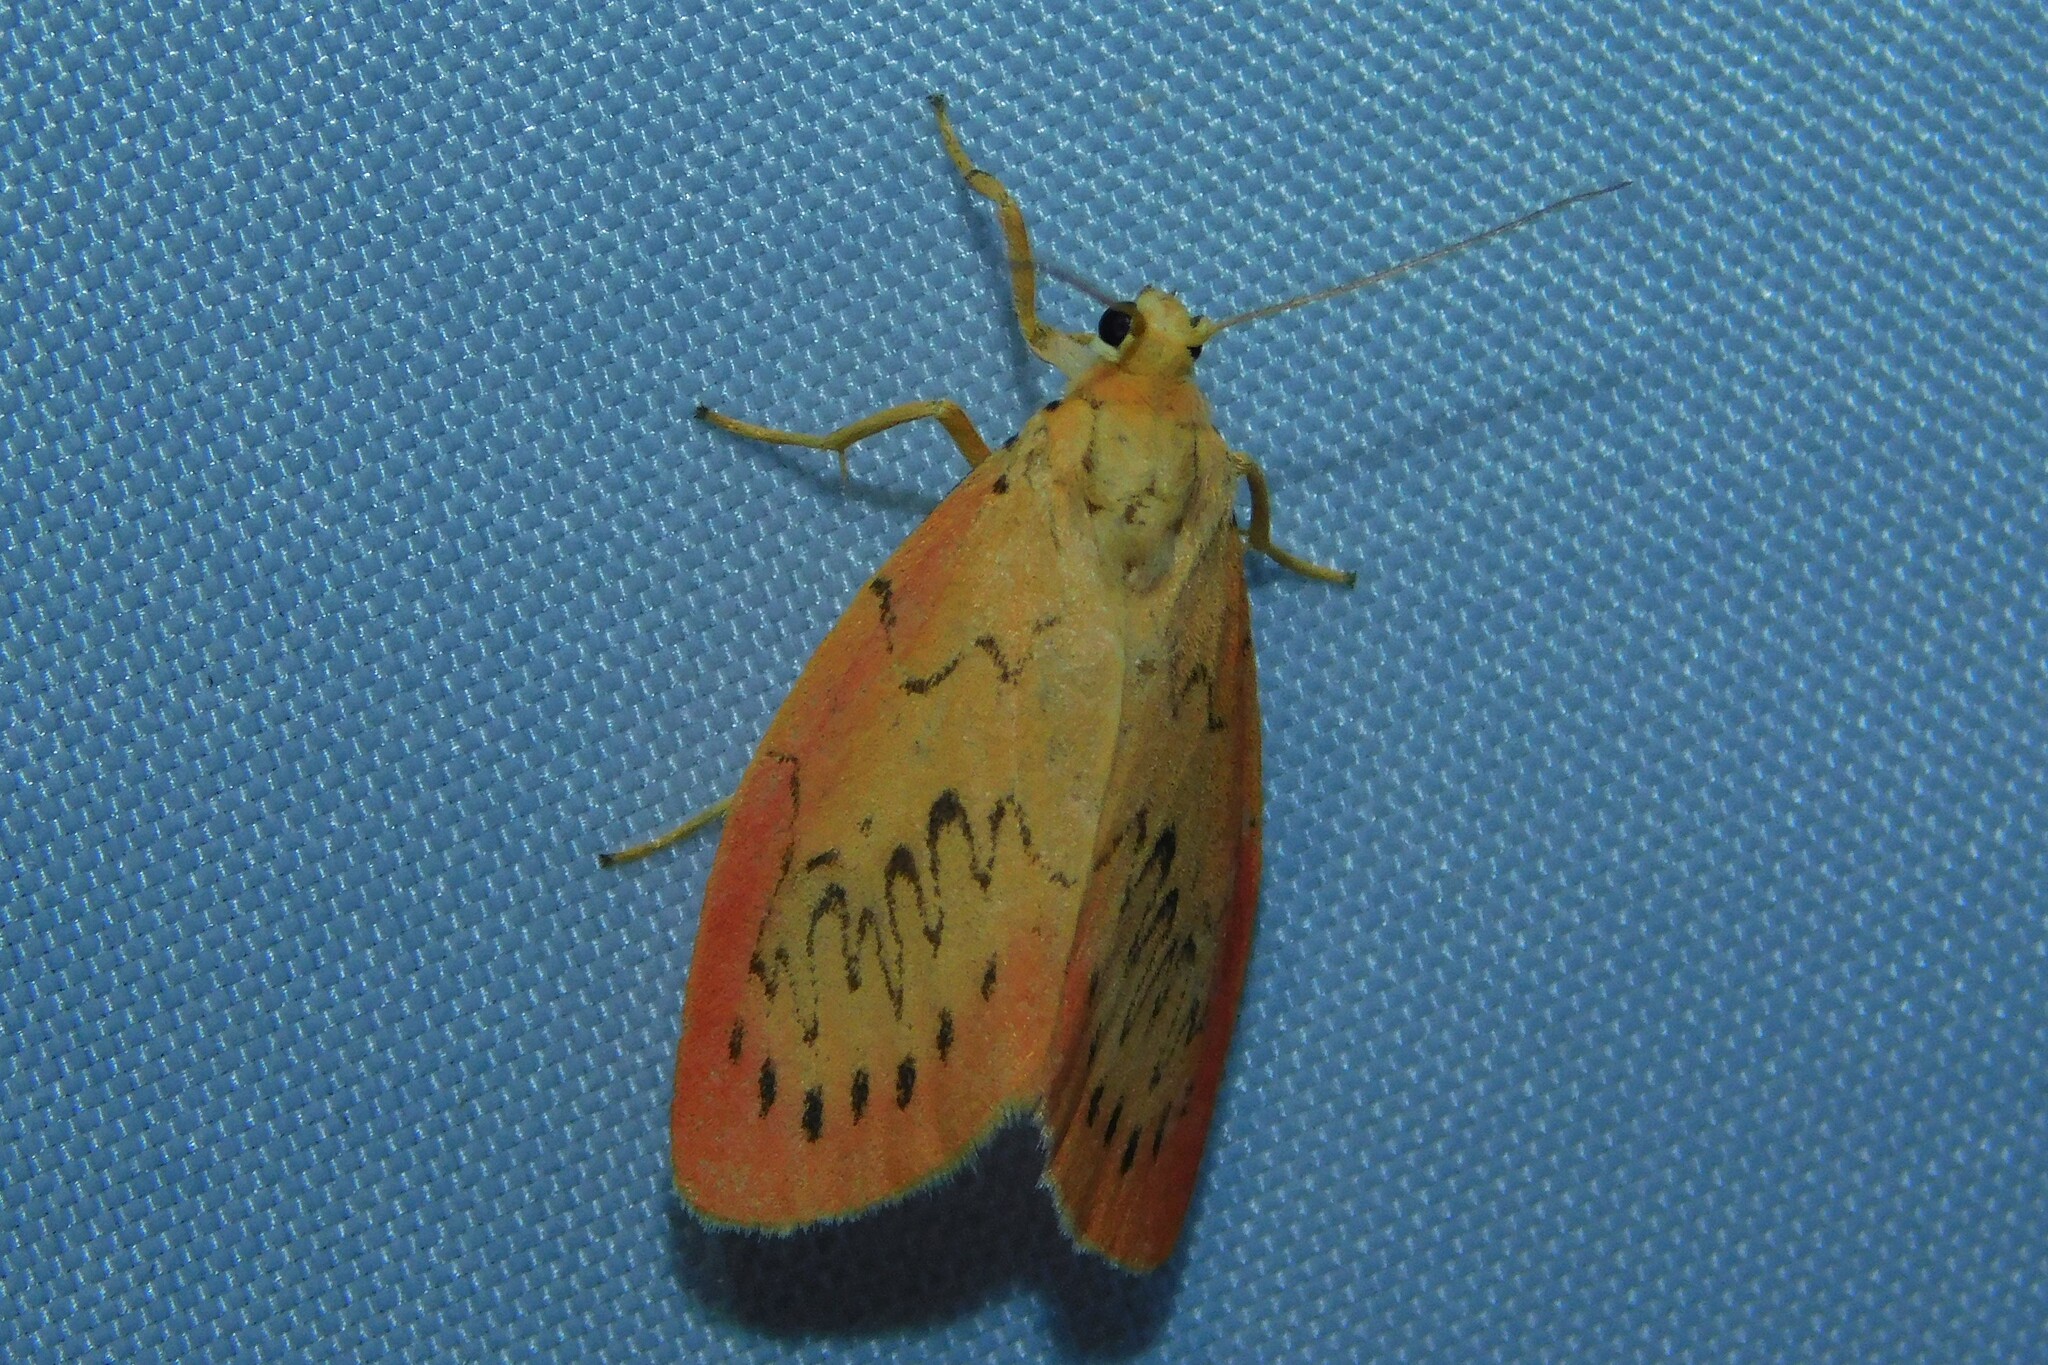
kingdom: Animalia
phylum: Arthropoda
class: Insecta
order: Lepidoptera
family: Erebidae
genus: Miltochrista
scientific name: Miltochrista miniata
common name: Rosy footman
